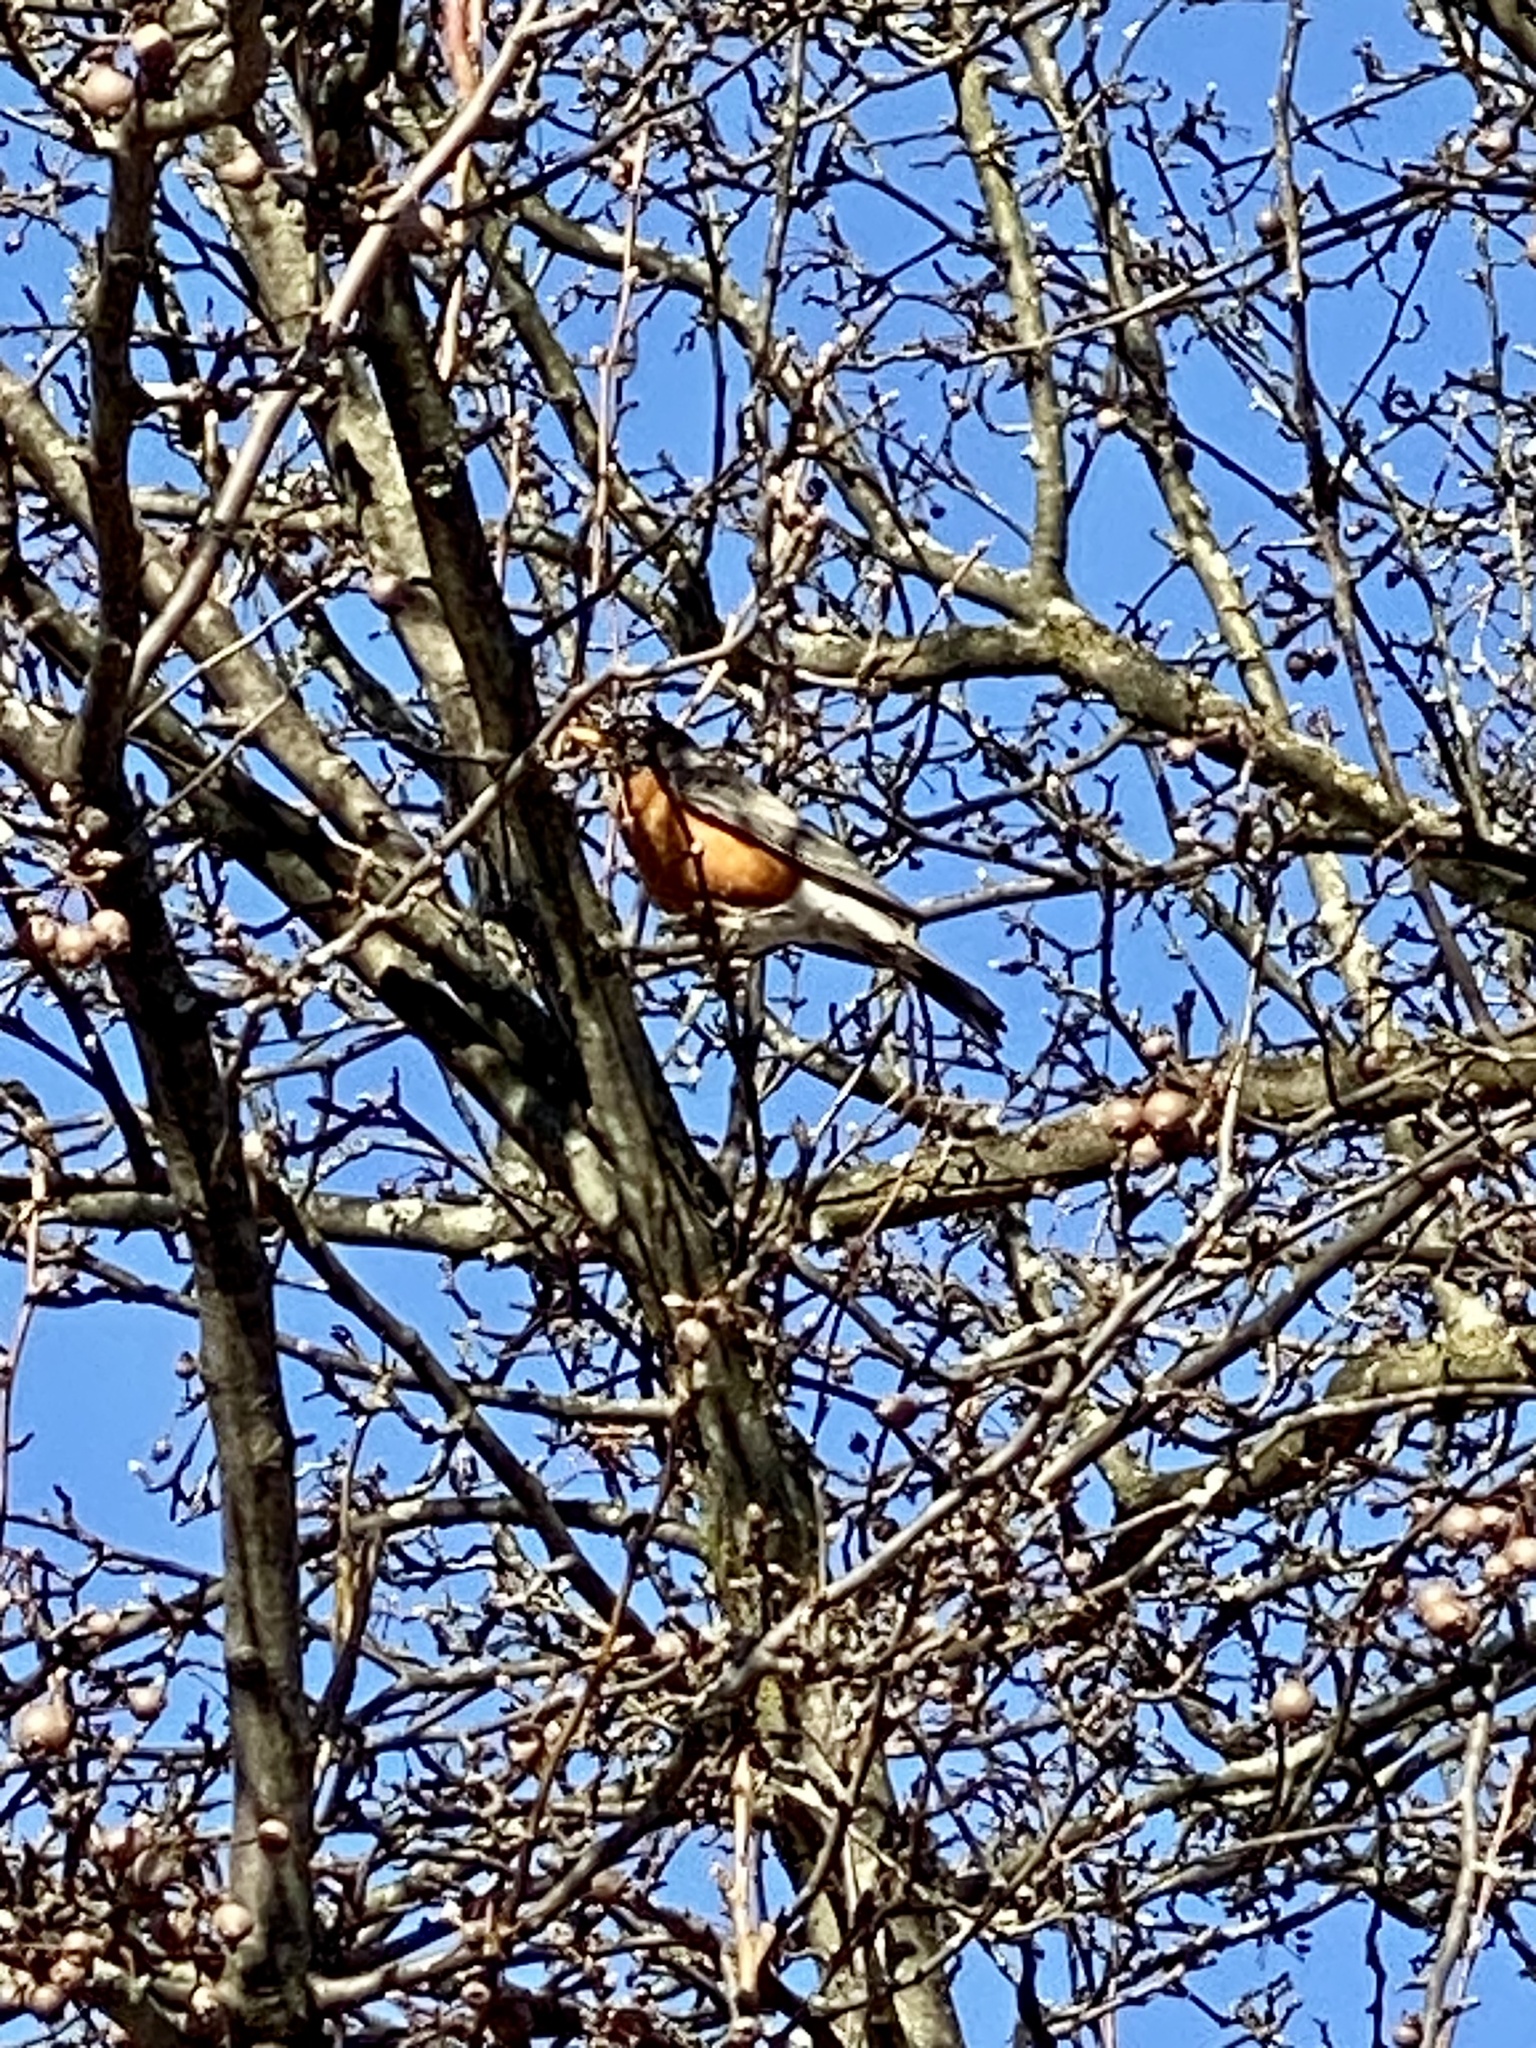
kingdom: Animalia
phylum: Chordata
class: Aves
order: Passeriformes
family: Turdidae
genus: Turdus
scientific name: Turdus migratorius
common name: American robin
